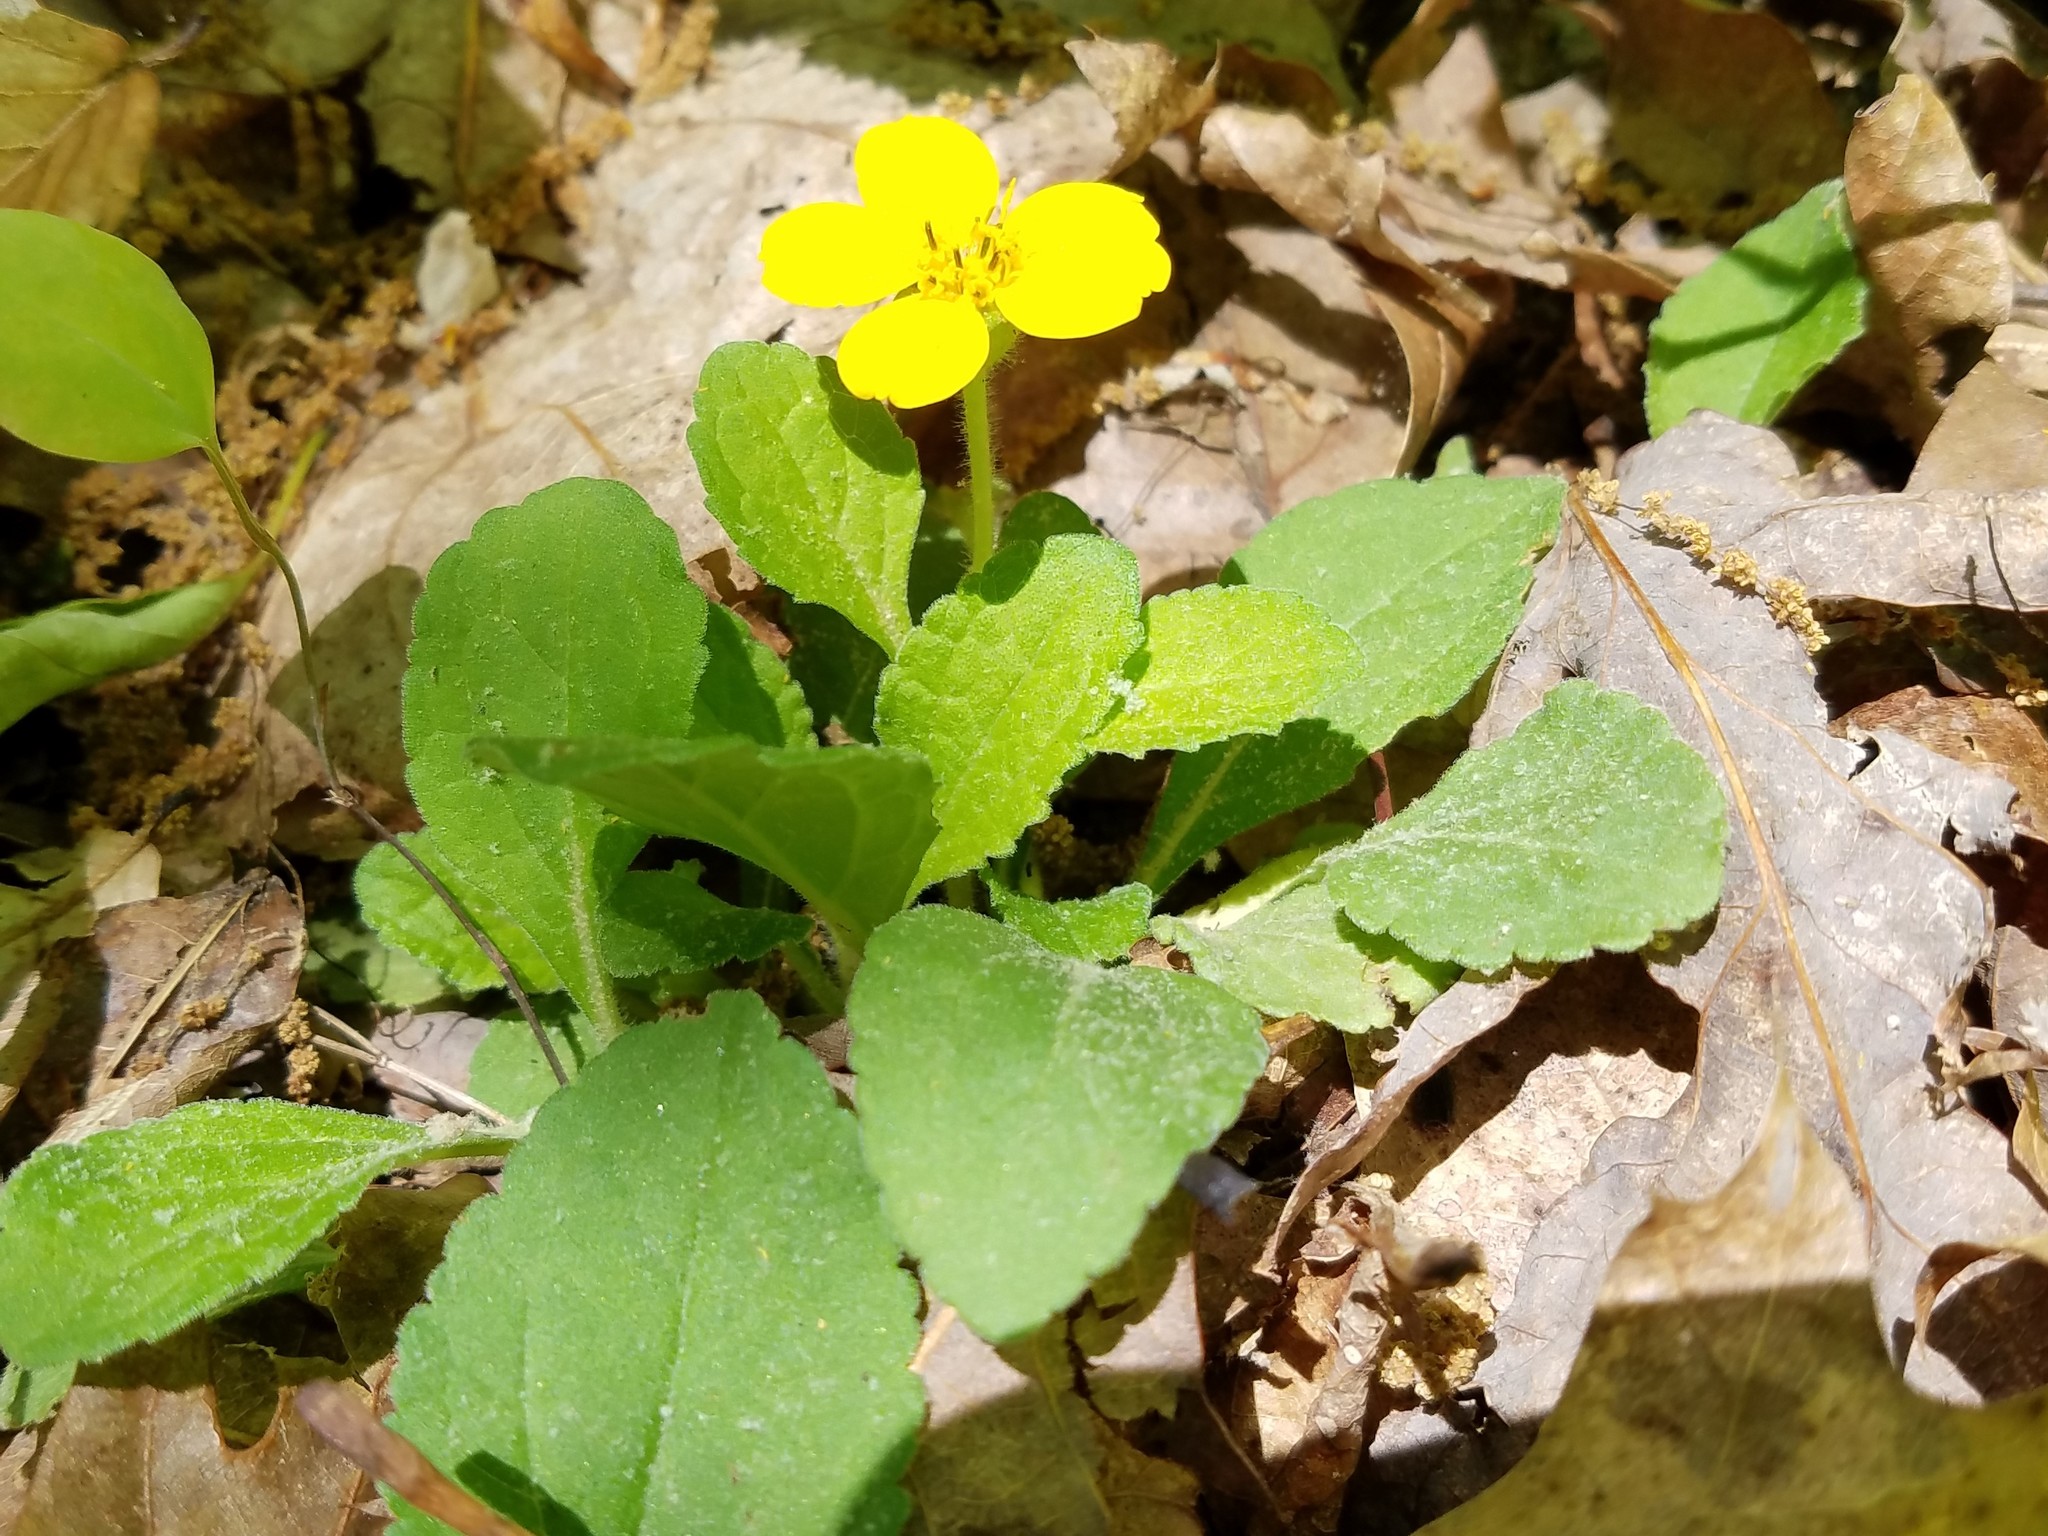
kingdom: Plantae
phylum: Tracheophyta
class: Magnoliopsida
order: Asterales
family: Asteraceae
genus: Chrysogonum
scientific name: Chrysogonum virginianum
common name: Golden-knee
